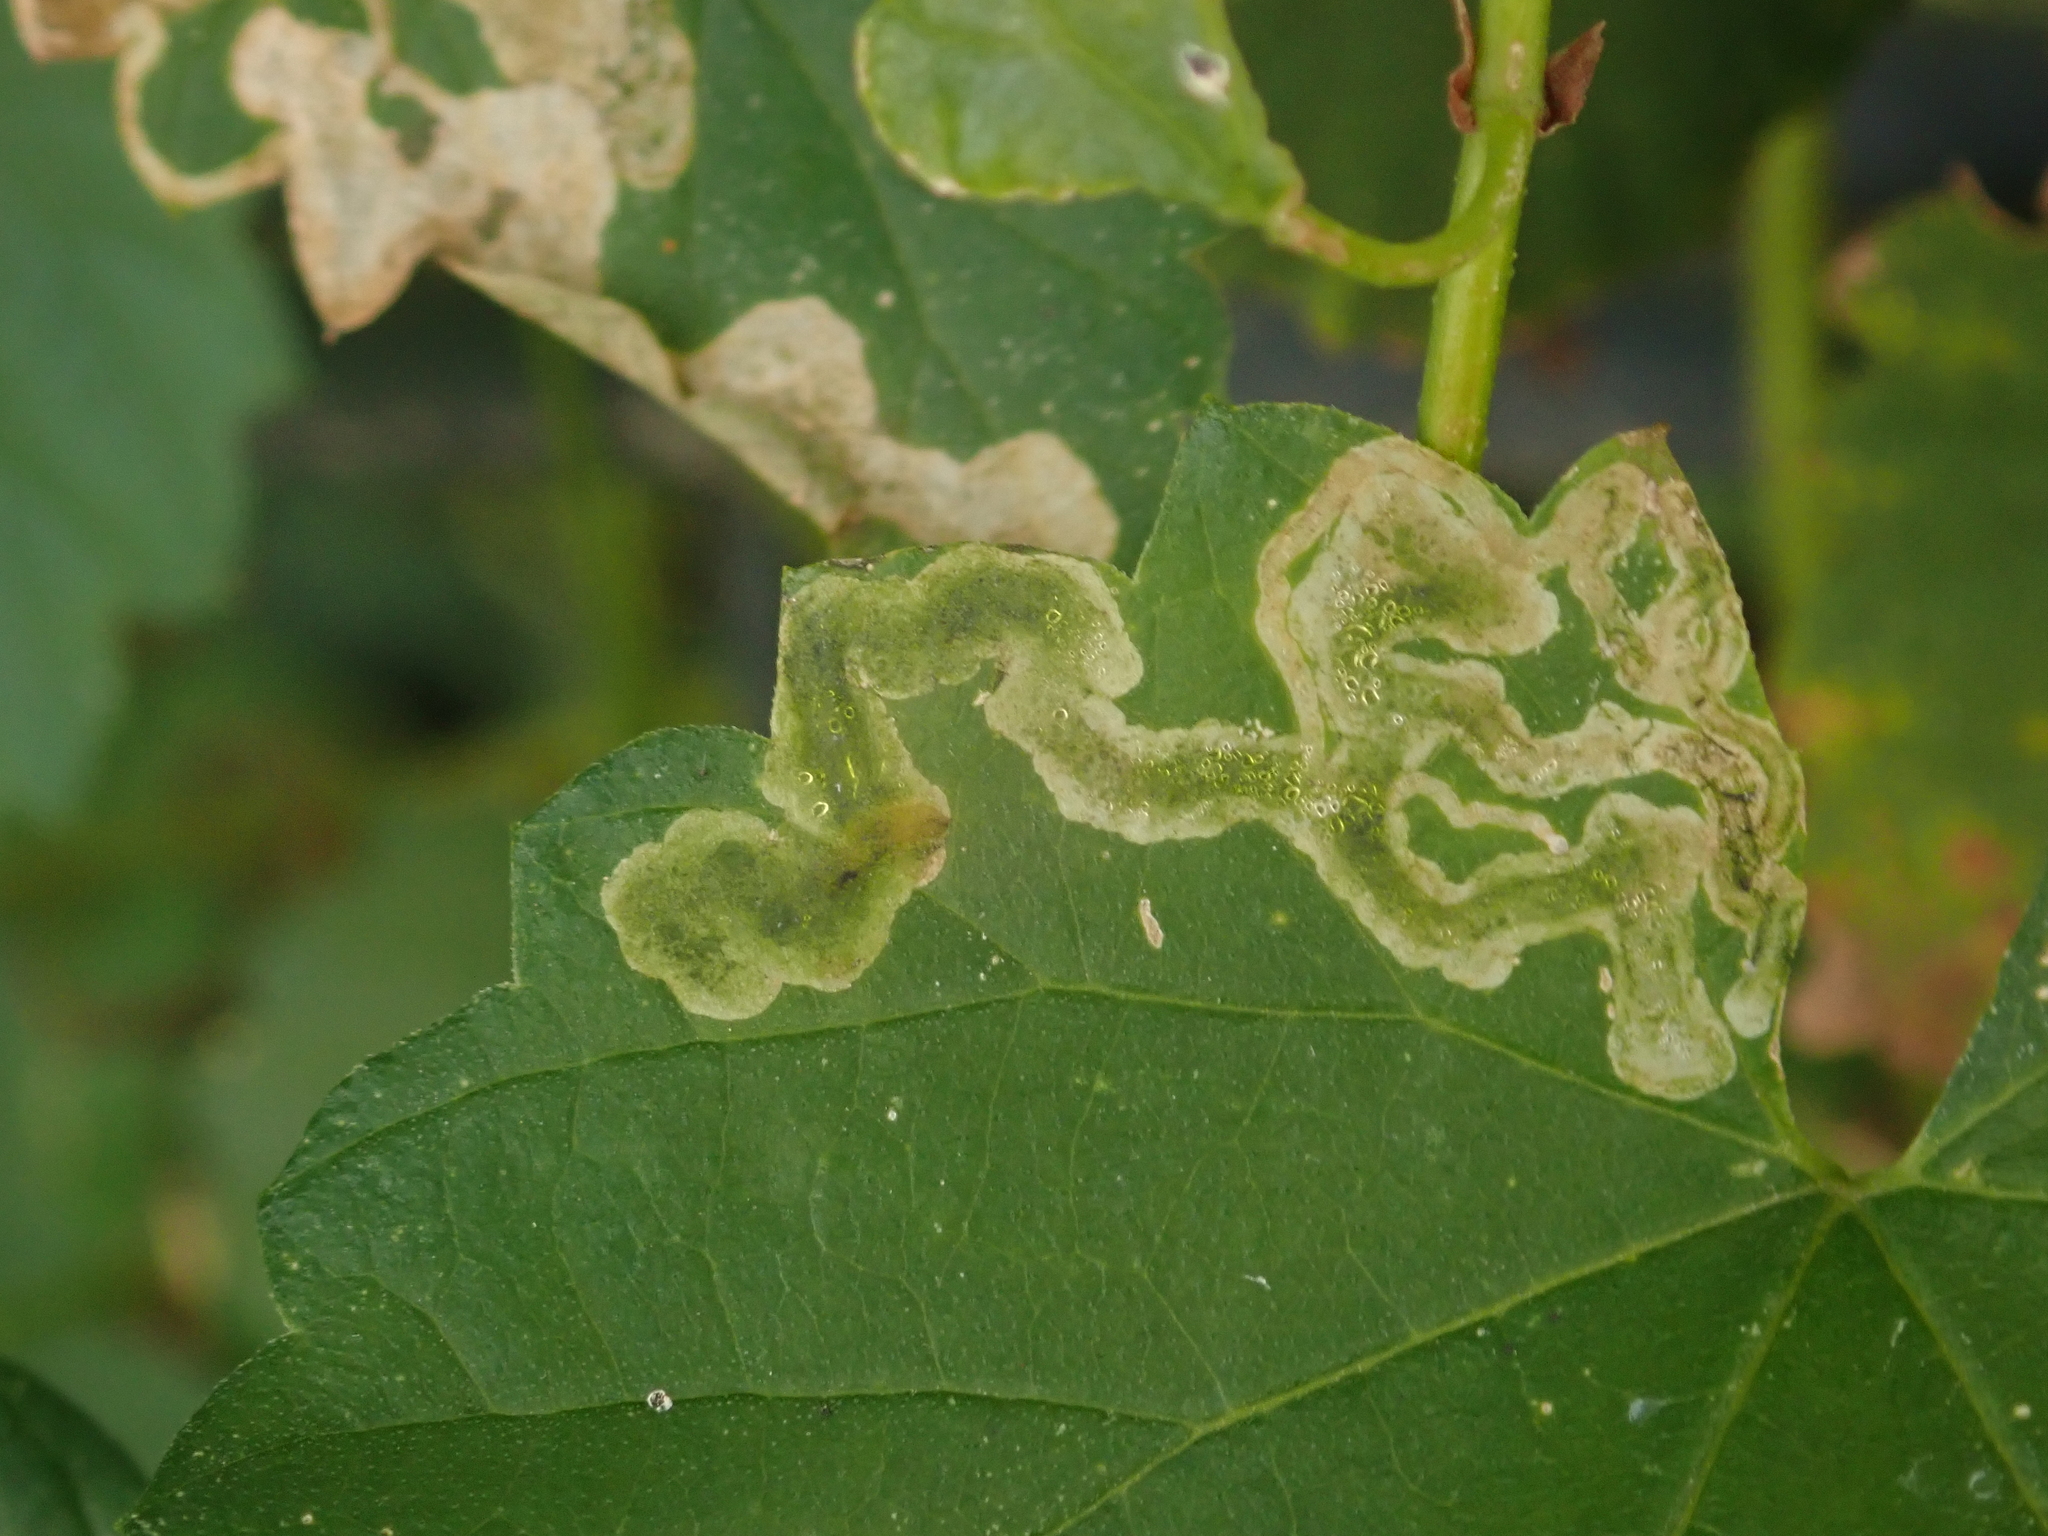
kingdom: Animalia
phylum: Arthropoda
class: Insecta
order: Diptera
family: Agromyzidae
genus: Agromyza
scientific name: Agromyza flaviceps
